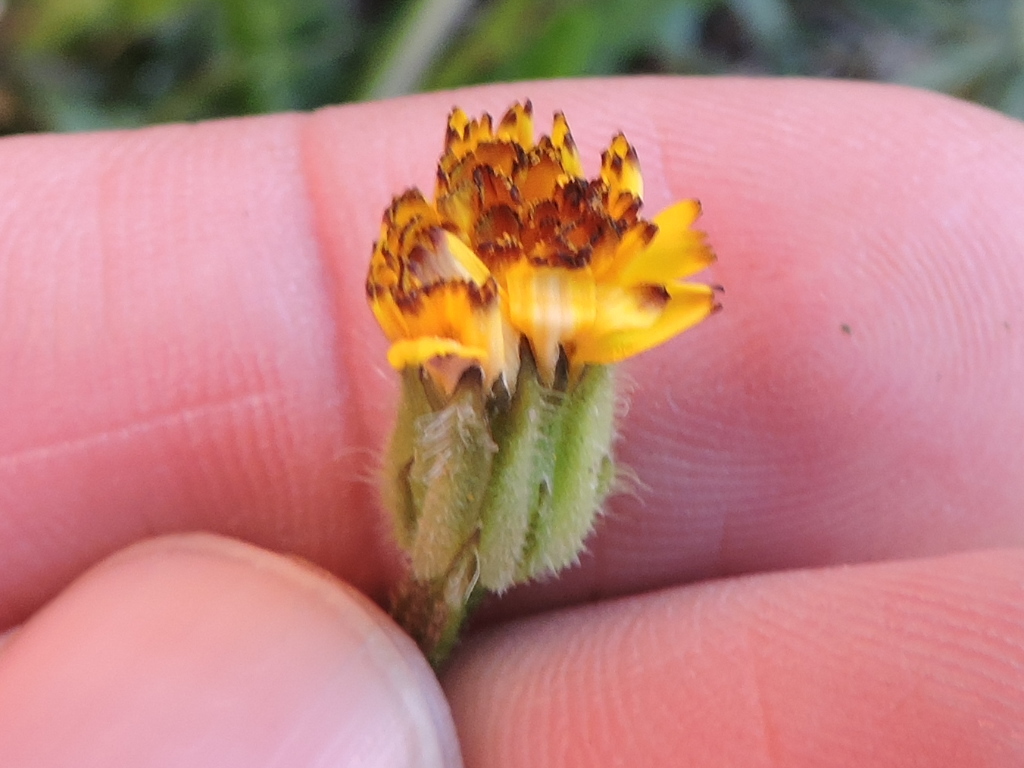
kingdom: Plantae
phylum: Tracheophyta
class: Magnoliopsida
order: Asterales
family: Asteraceae
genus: Hedypnois
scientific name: Hedypnois rhagadioloides
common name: Cretan weed
